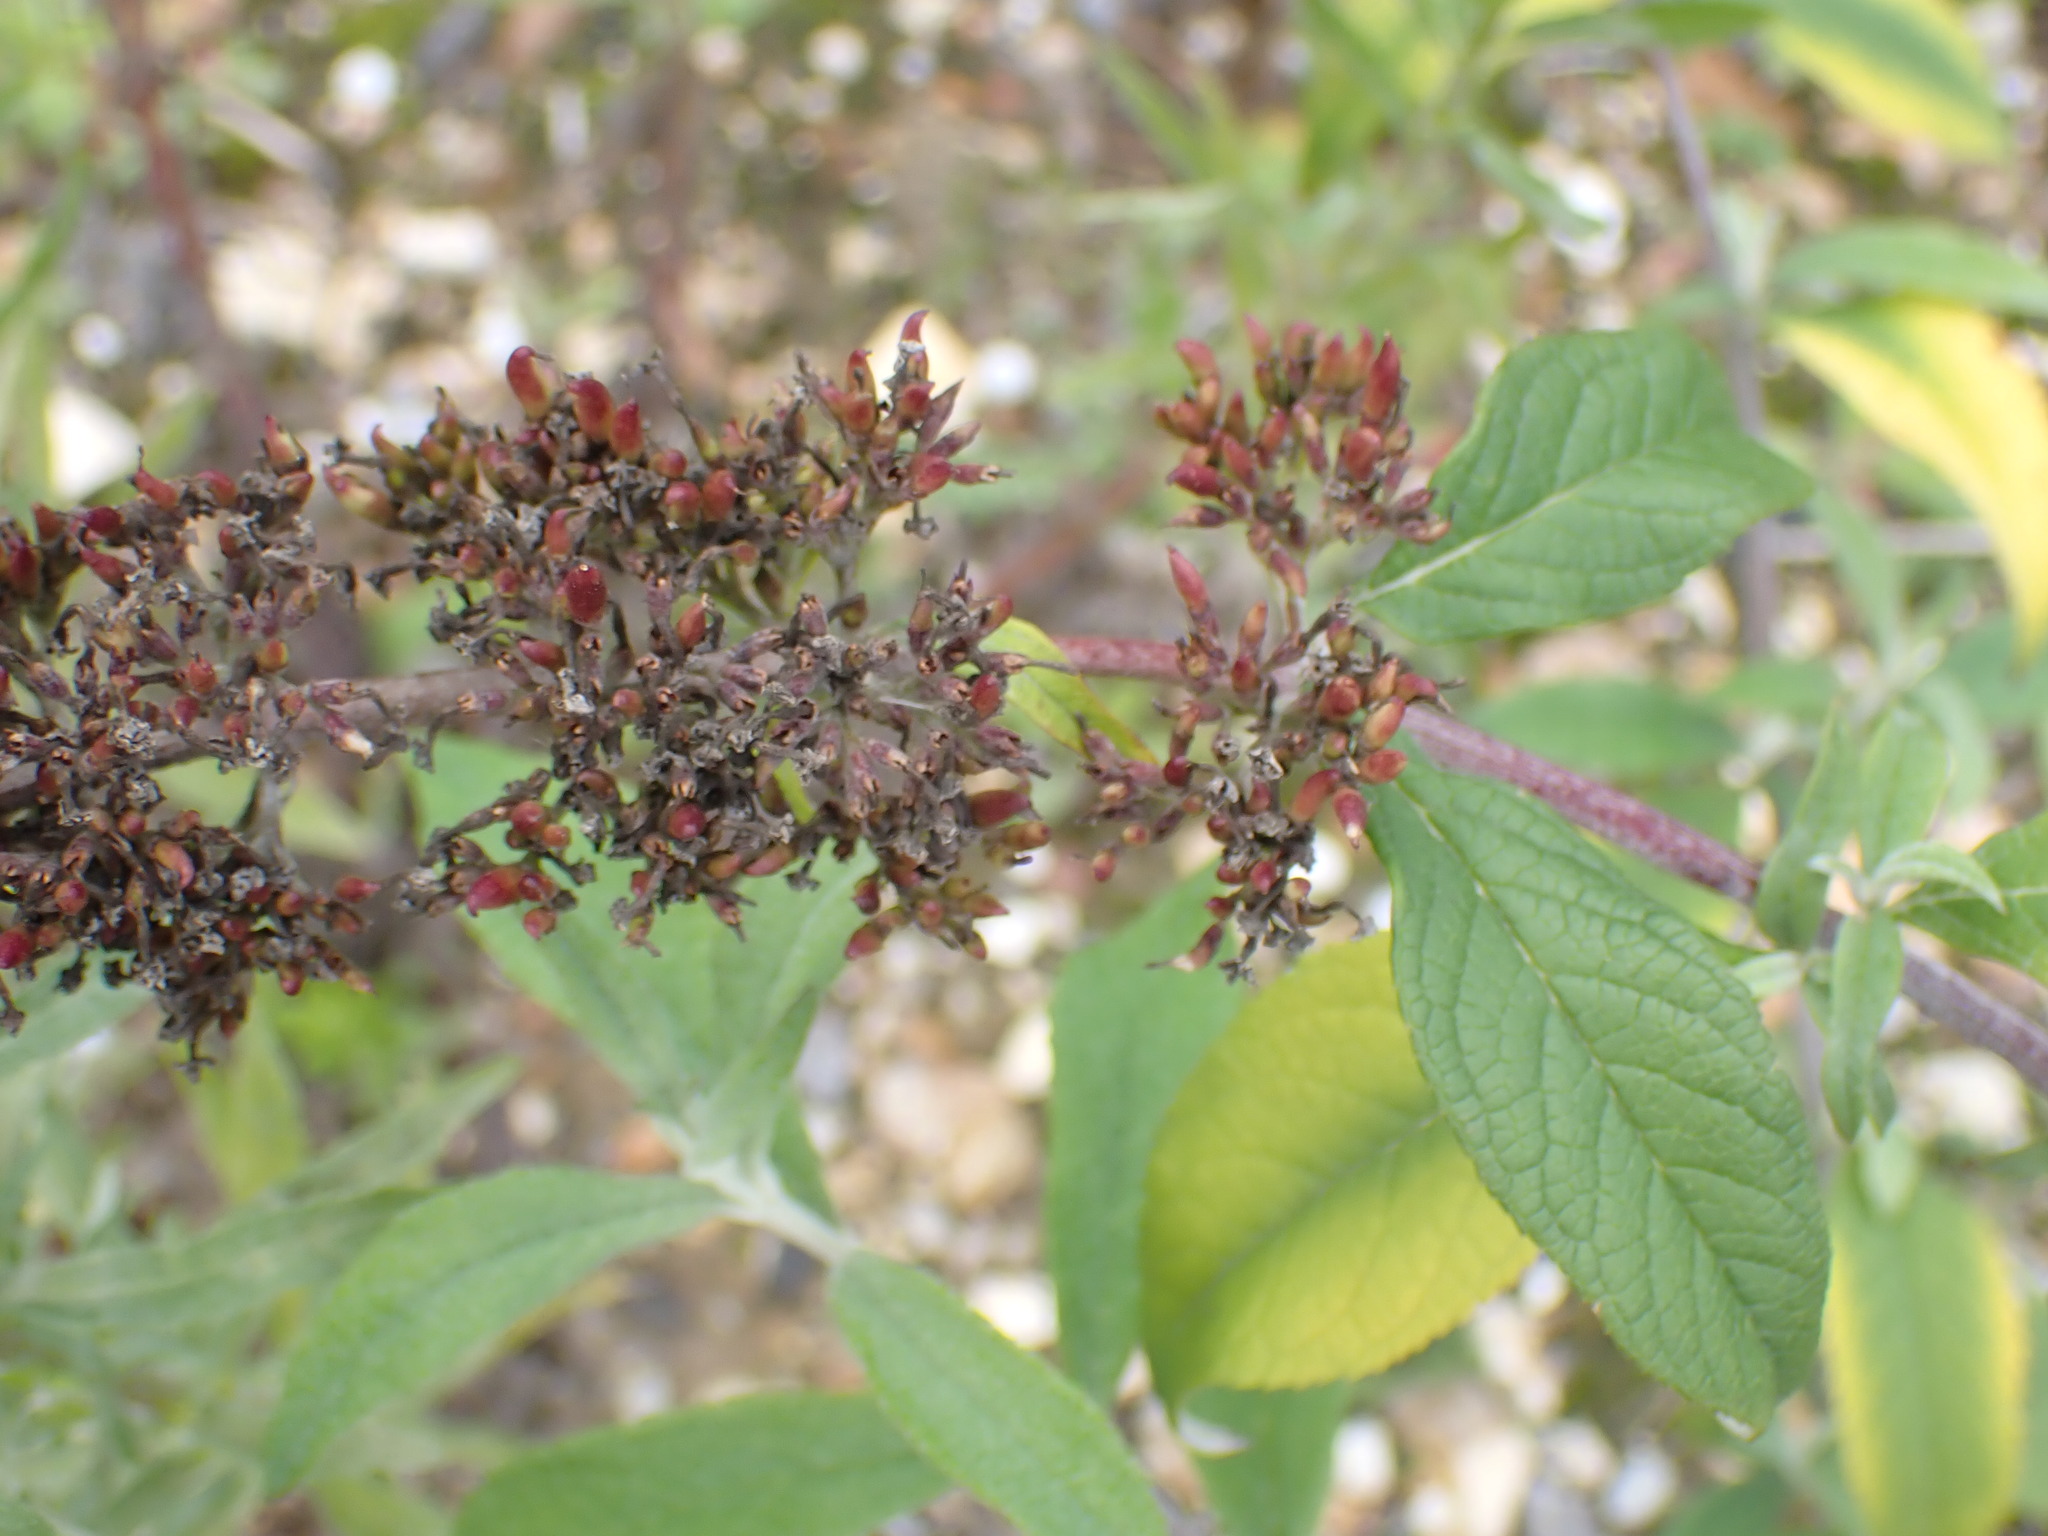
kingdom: Plantae
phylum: Tracheophyta
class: Magnoliopsida
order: Lamiales
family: Scrophulariaceae
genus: Buddleja
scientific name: Buddleja davidii
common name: Butterfly-bush
